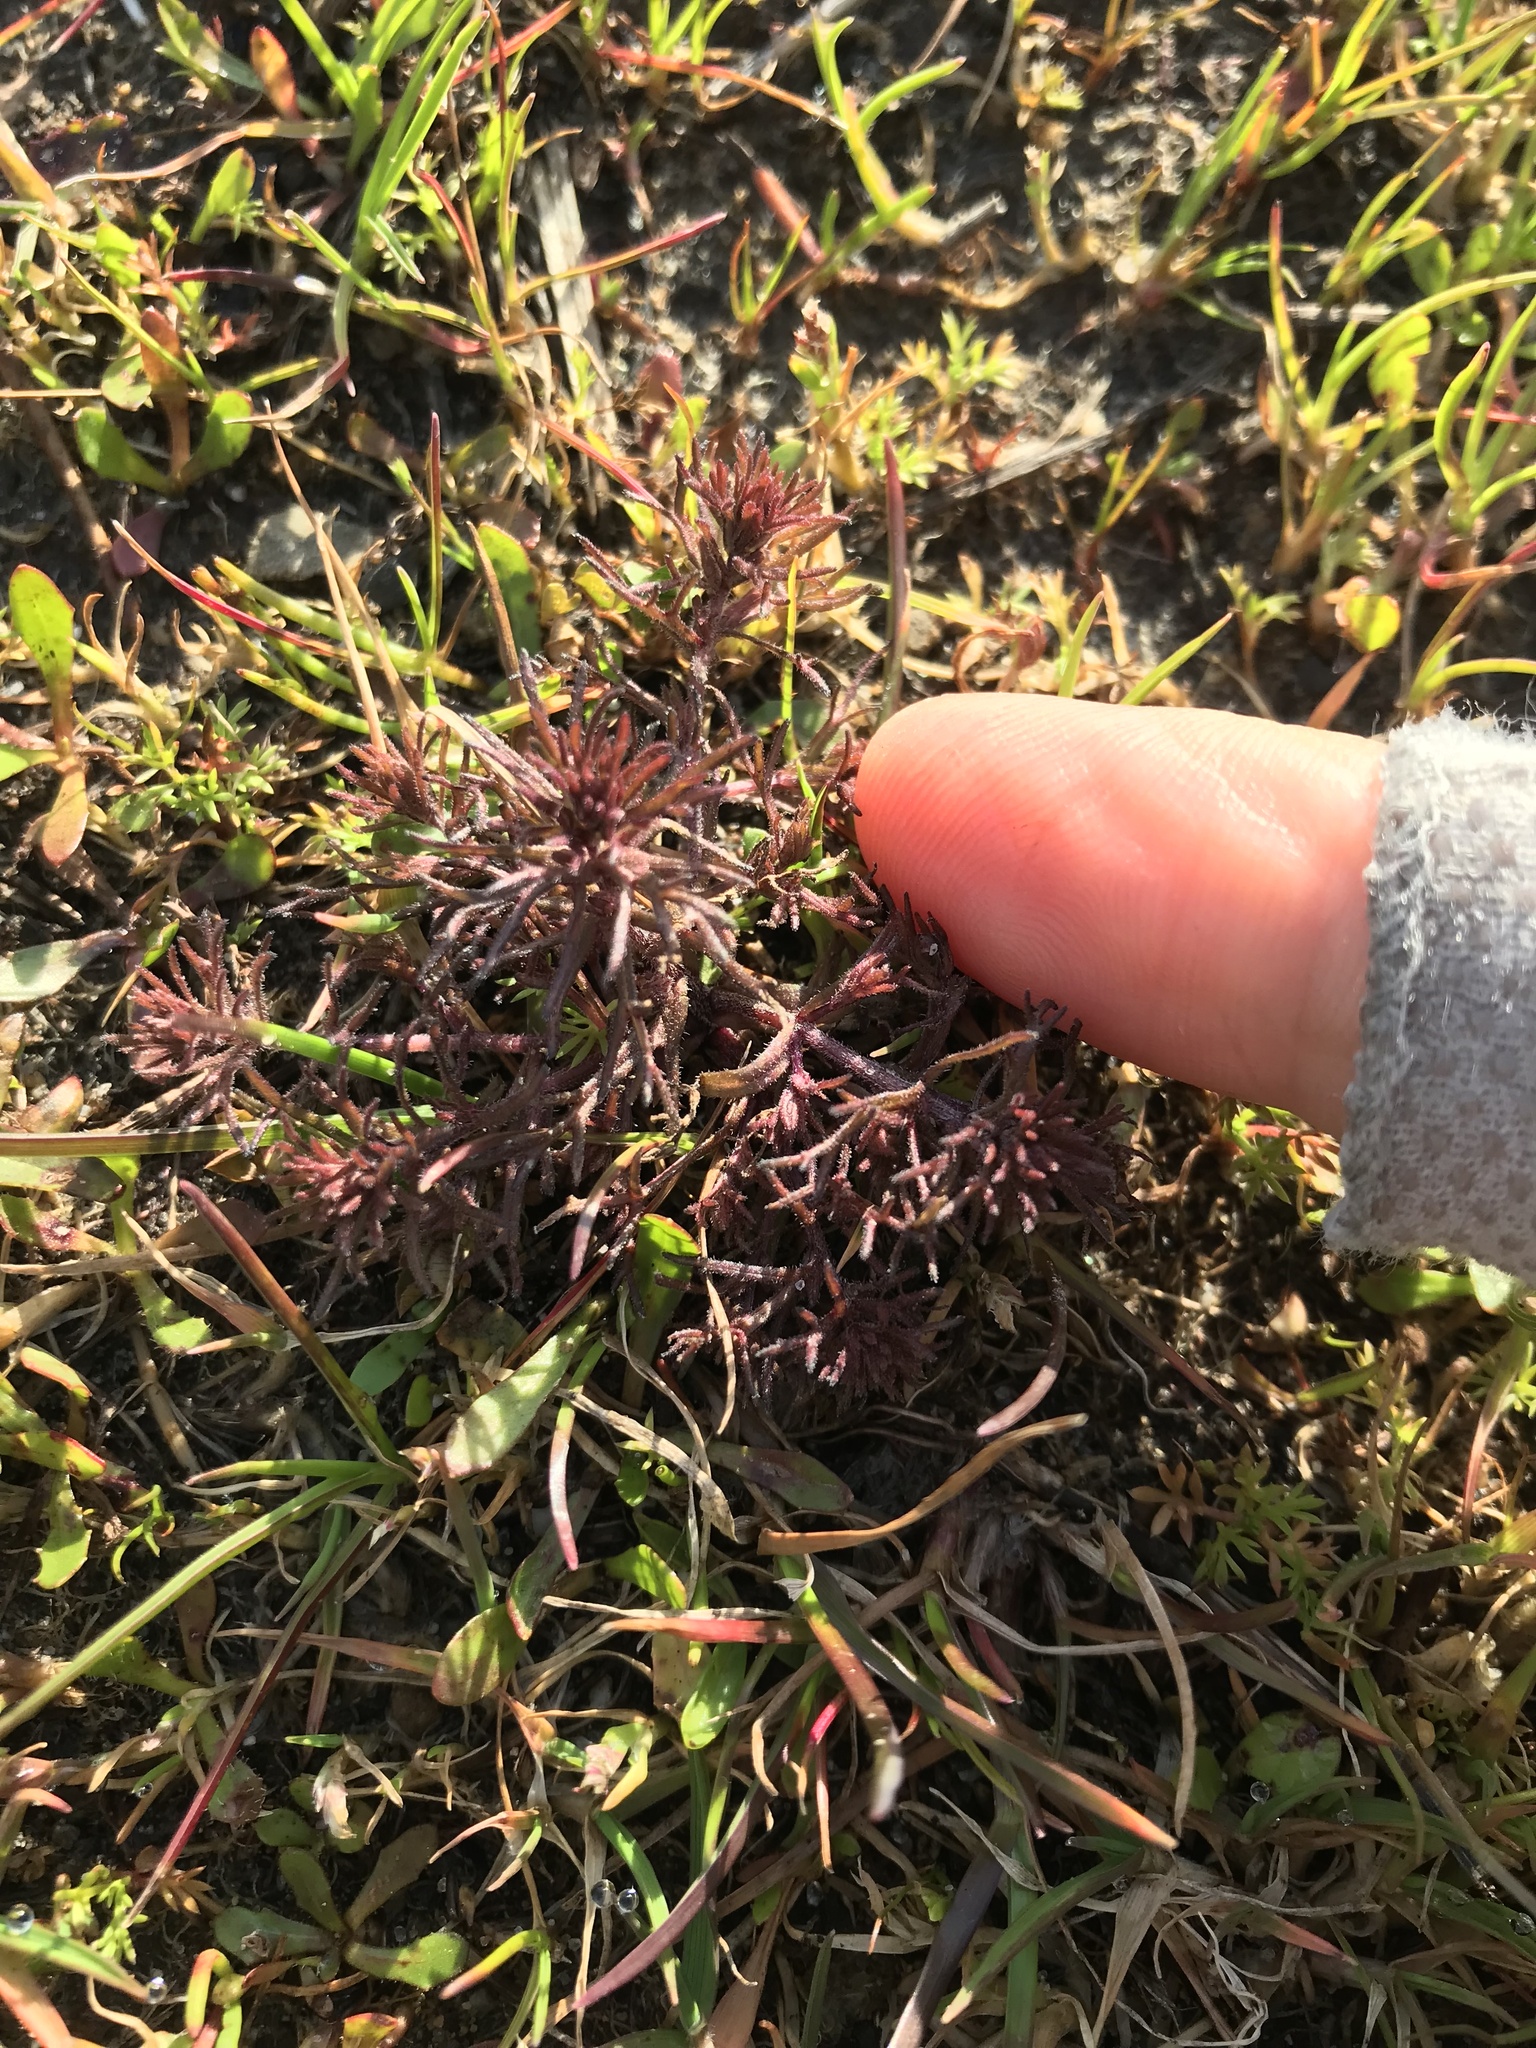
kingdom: Plantae
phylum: Tracheophyta
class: Magnoliopsida
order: Lamiales
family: Orobanchaceae
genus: Triphysaria
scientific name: Triphysaria pusilla
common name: Dwarf false owl-clover
